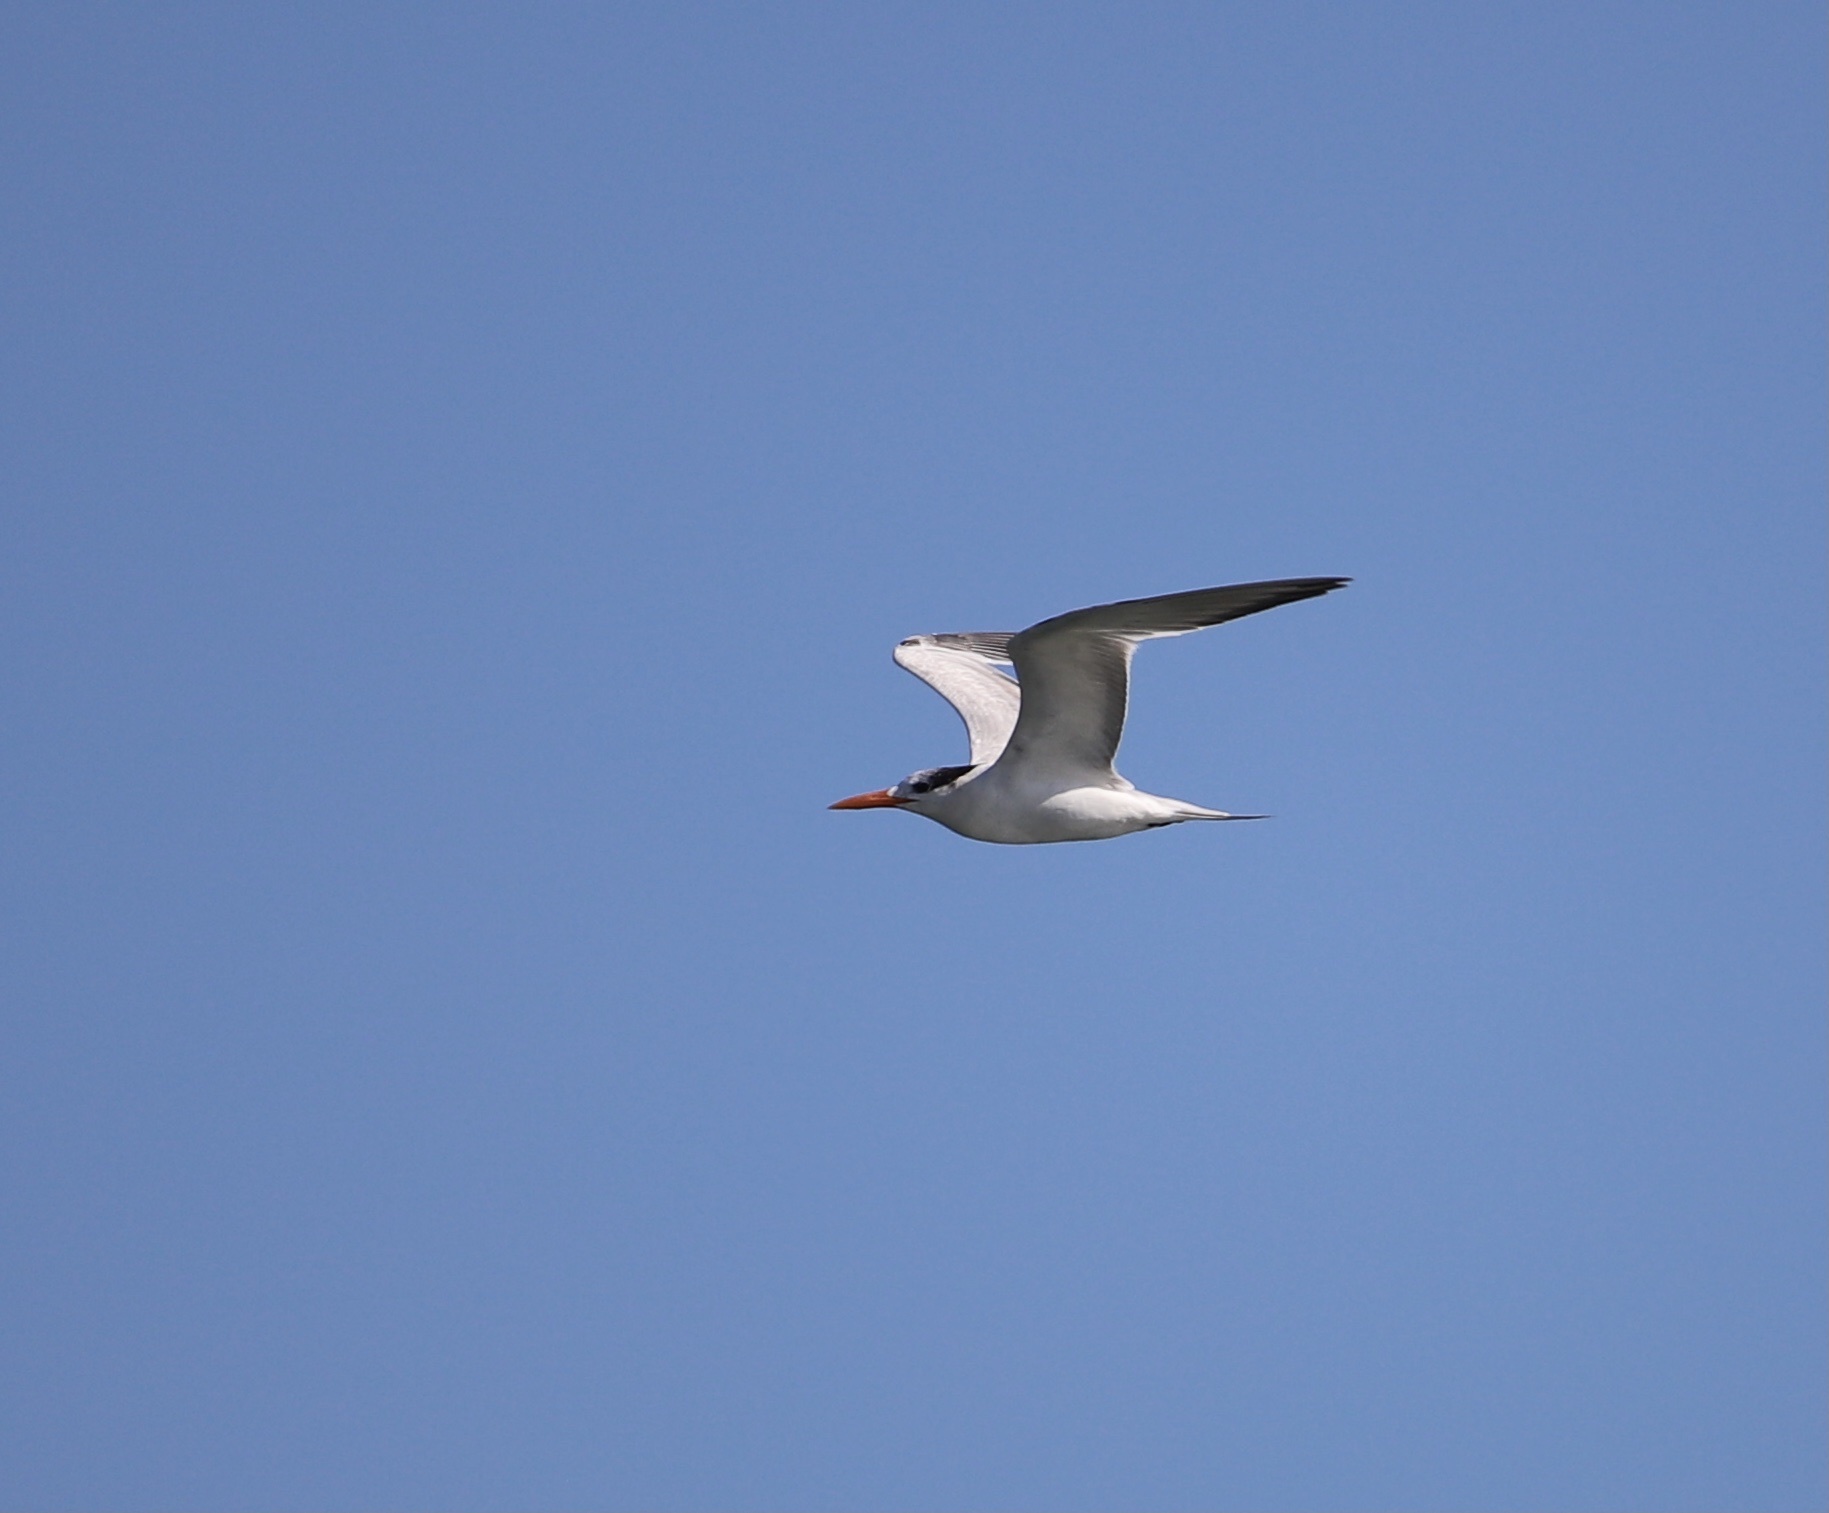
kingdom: Animalia
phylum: Chordata
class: Aves
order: Charadriiformes
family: Laridae
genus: Thalasseus
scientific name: Thalasseus maximus
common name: Royal tern
